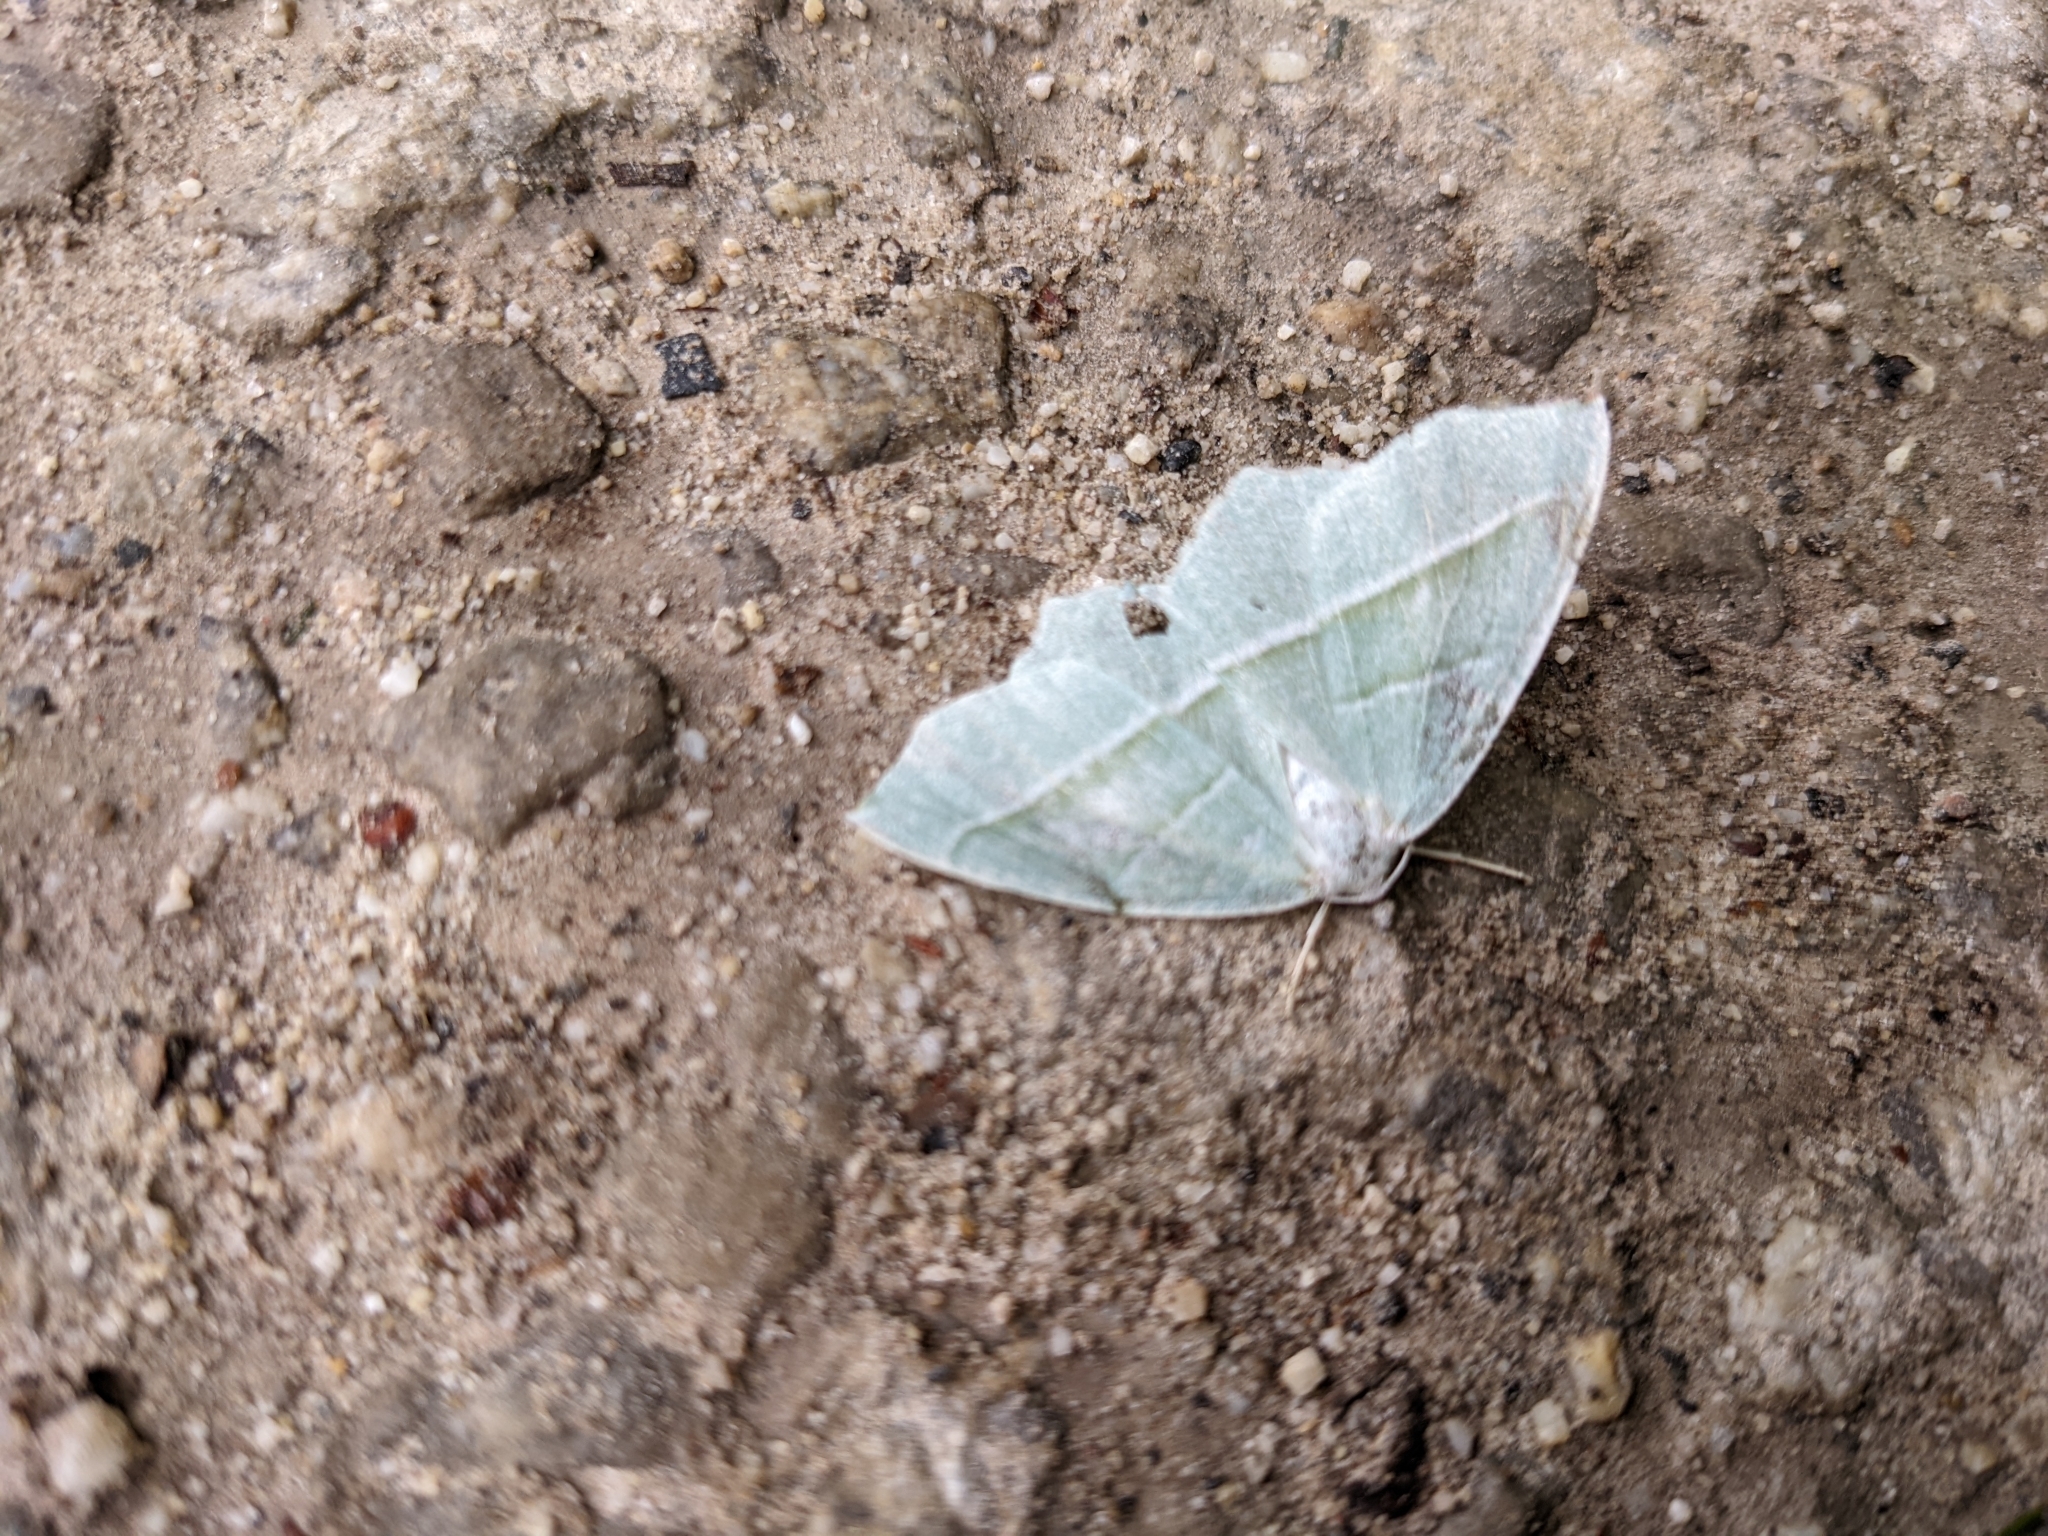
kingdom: Animalia
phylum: Arthropoda
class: Insecta
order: Lepidoptera
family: Geometridae
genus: Campaea
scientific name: Campaea margaritaria
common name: Light emerald
